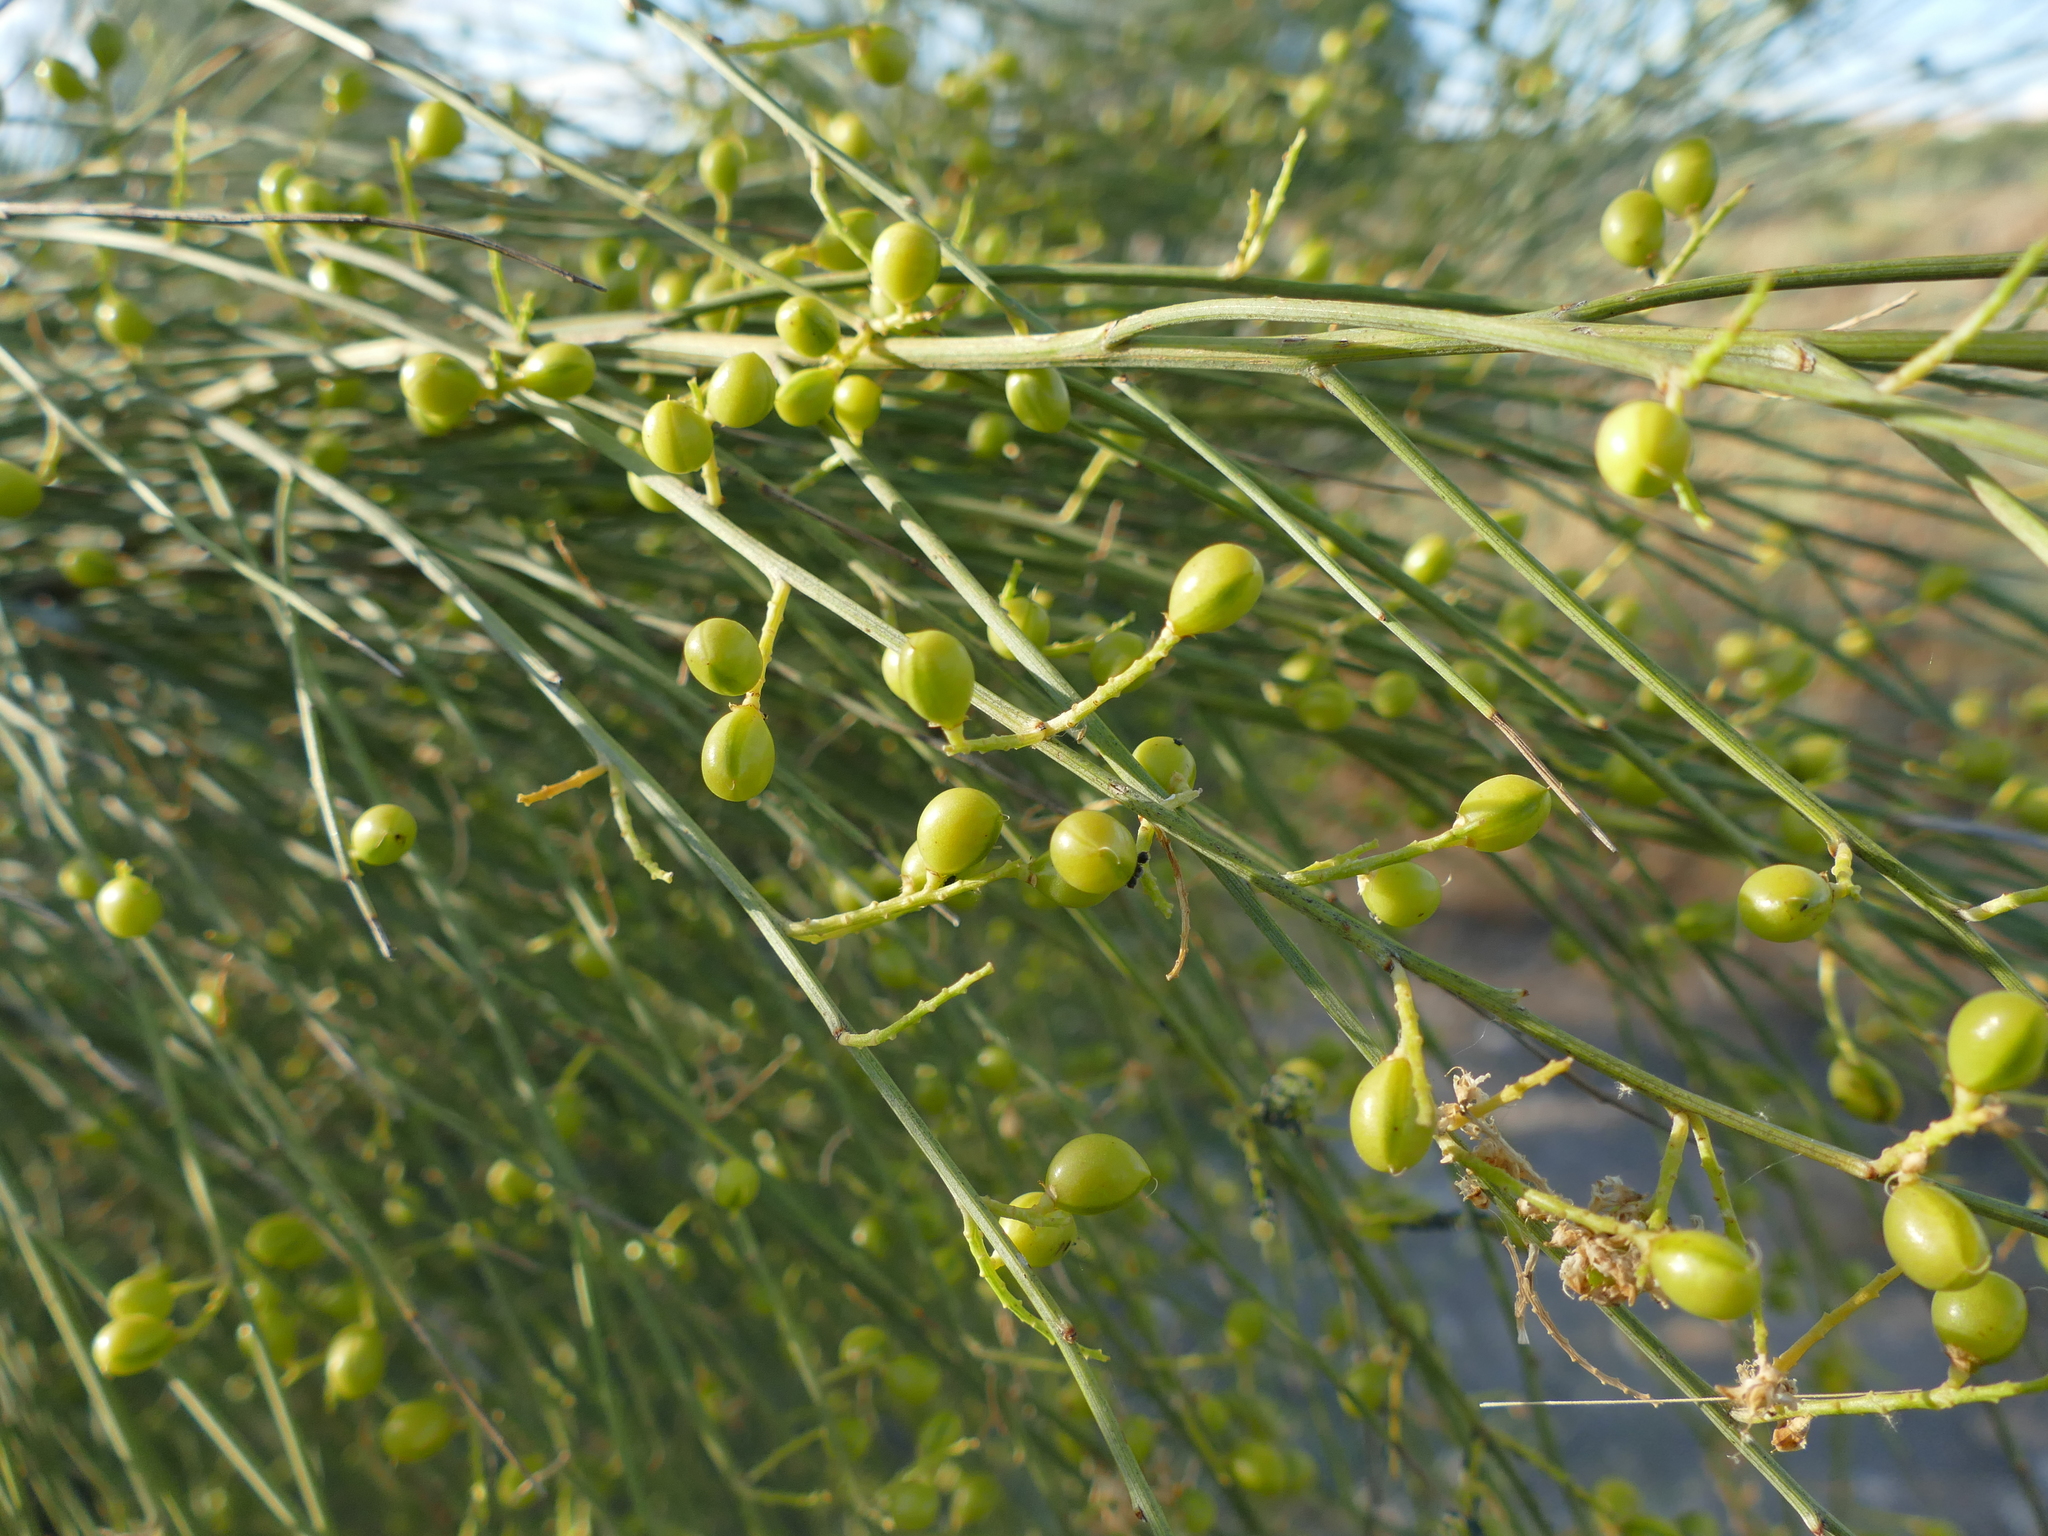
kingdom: Plantae
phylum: Tracheophyta
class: Magnoliopsida
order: Fabales
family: Fabaceae
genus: Retama
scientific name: Retama sphaerocarpa
